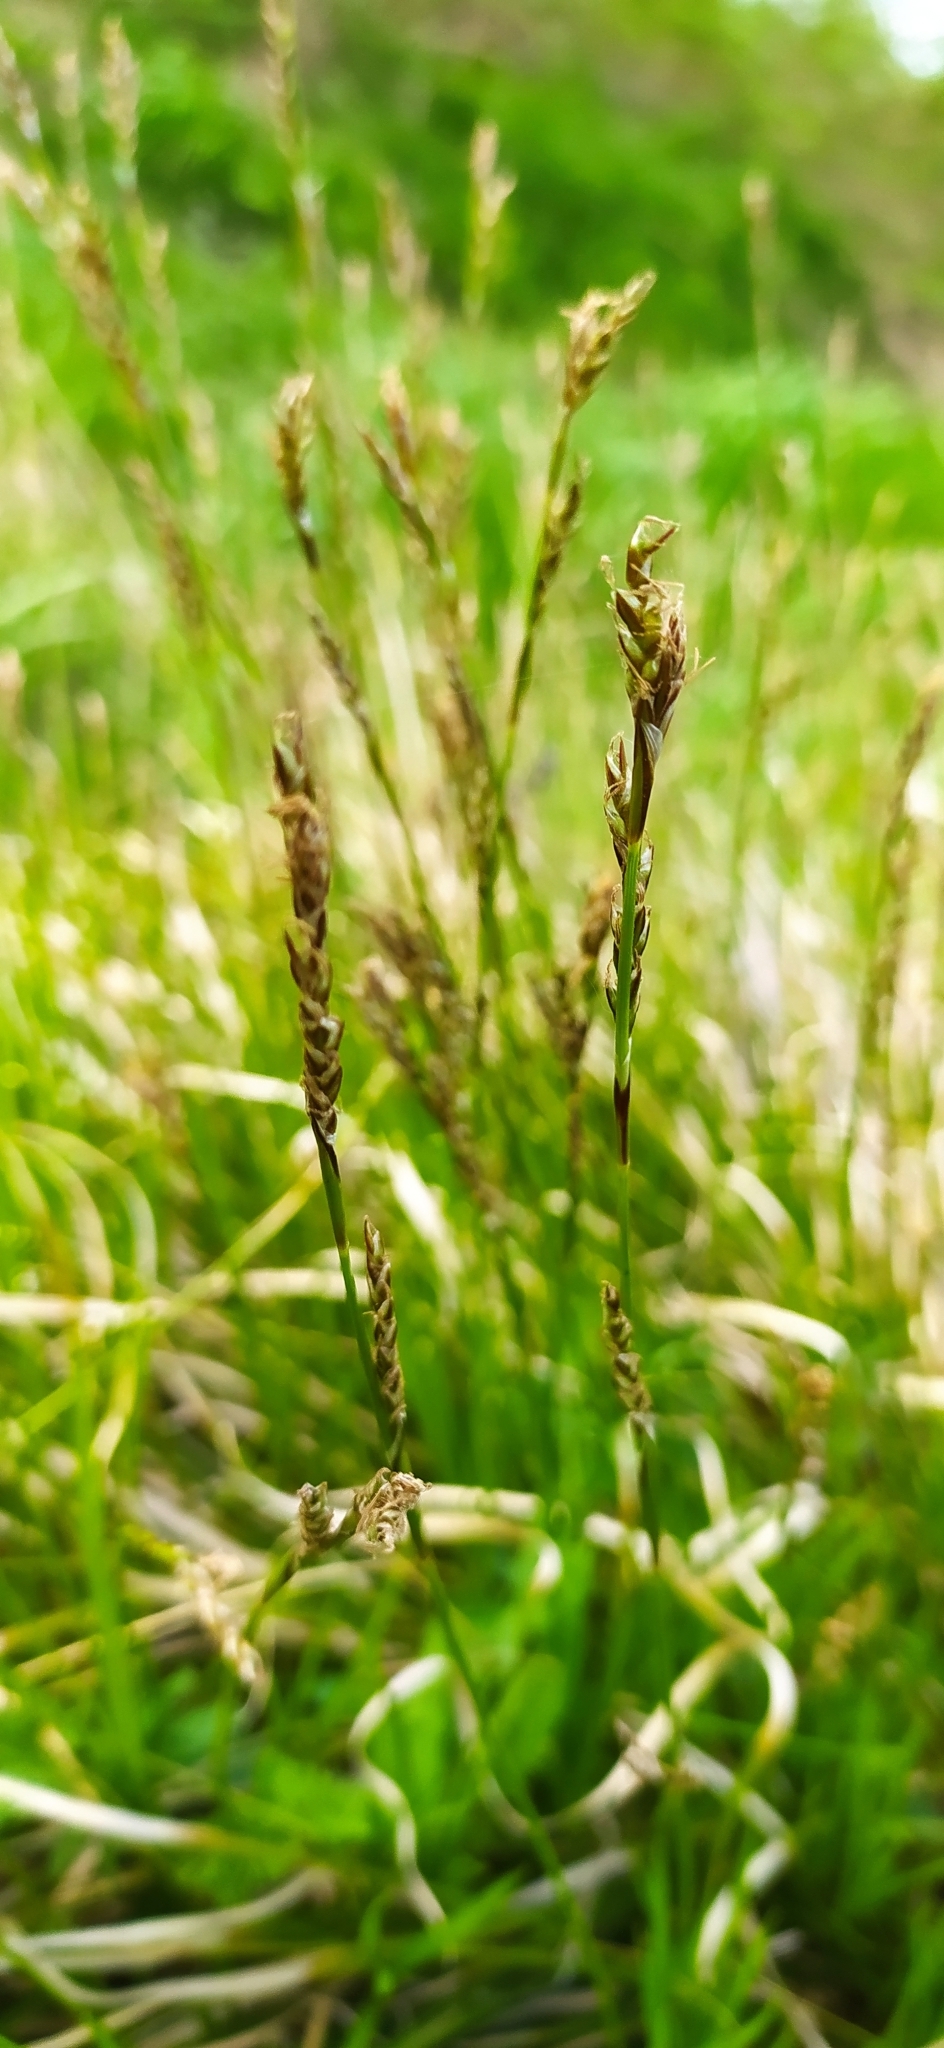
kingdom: Plantae
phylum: Tracheophyta
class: Liliopsida
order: Poales
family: Cyperaceae
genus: Carex
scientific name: Carex rhizina
